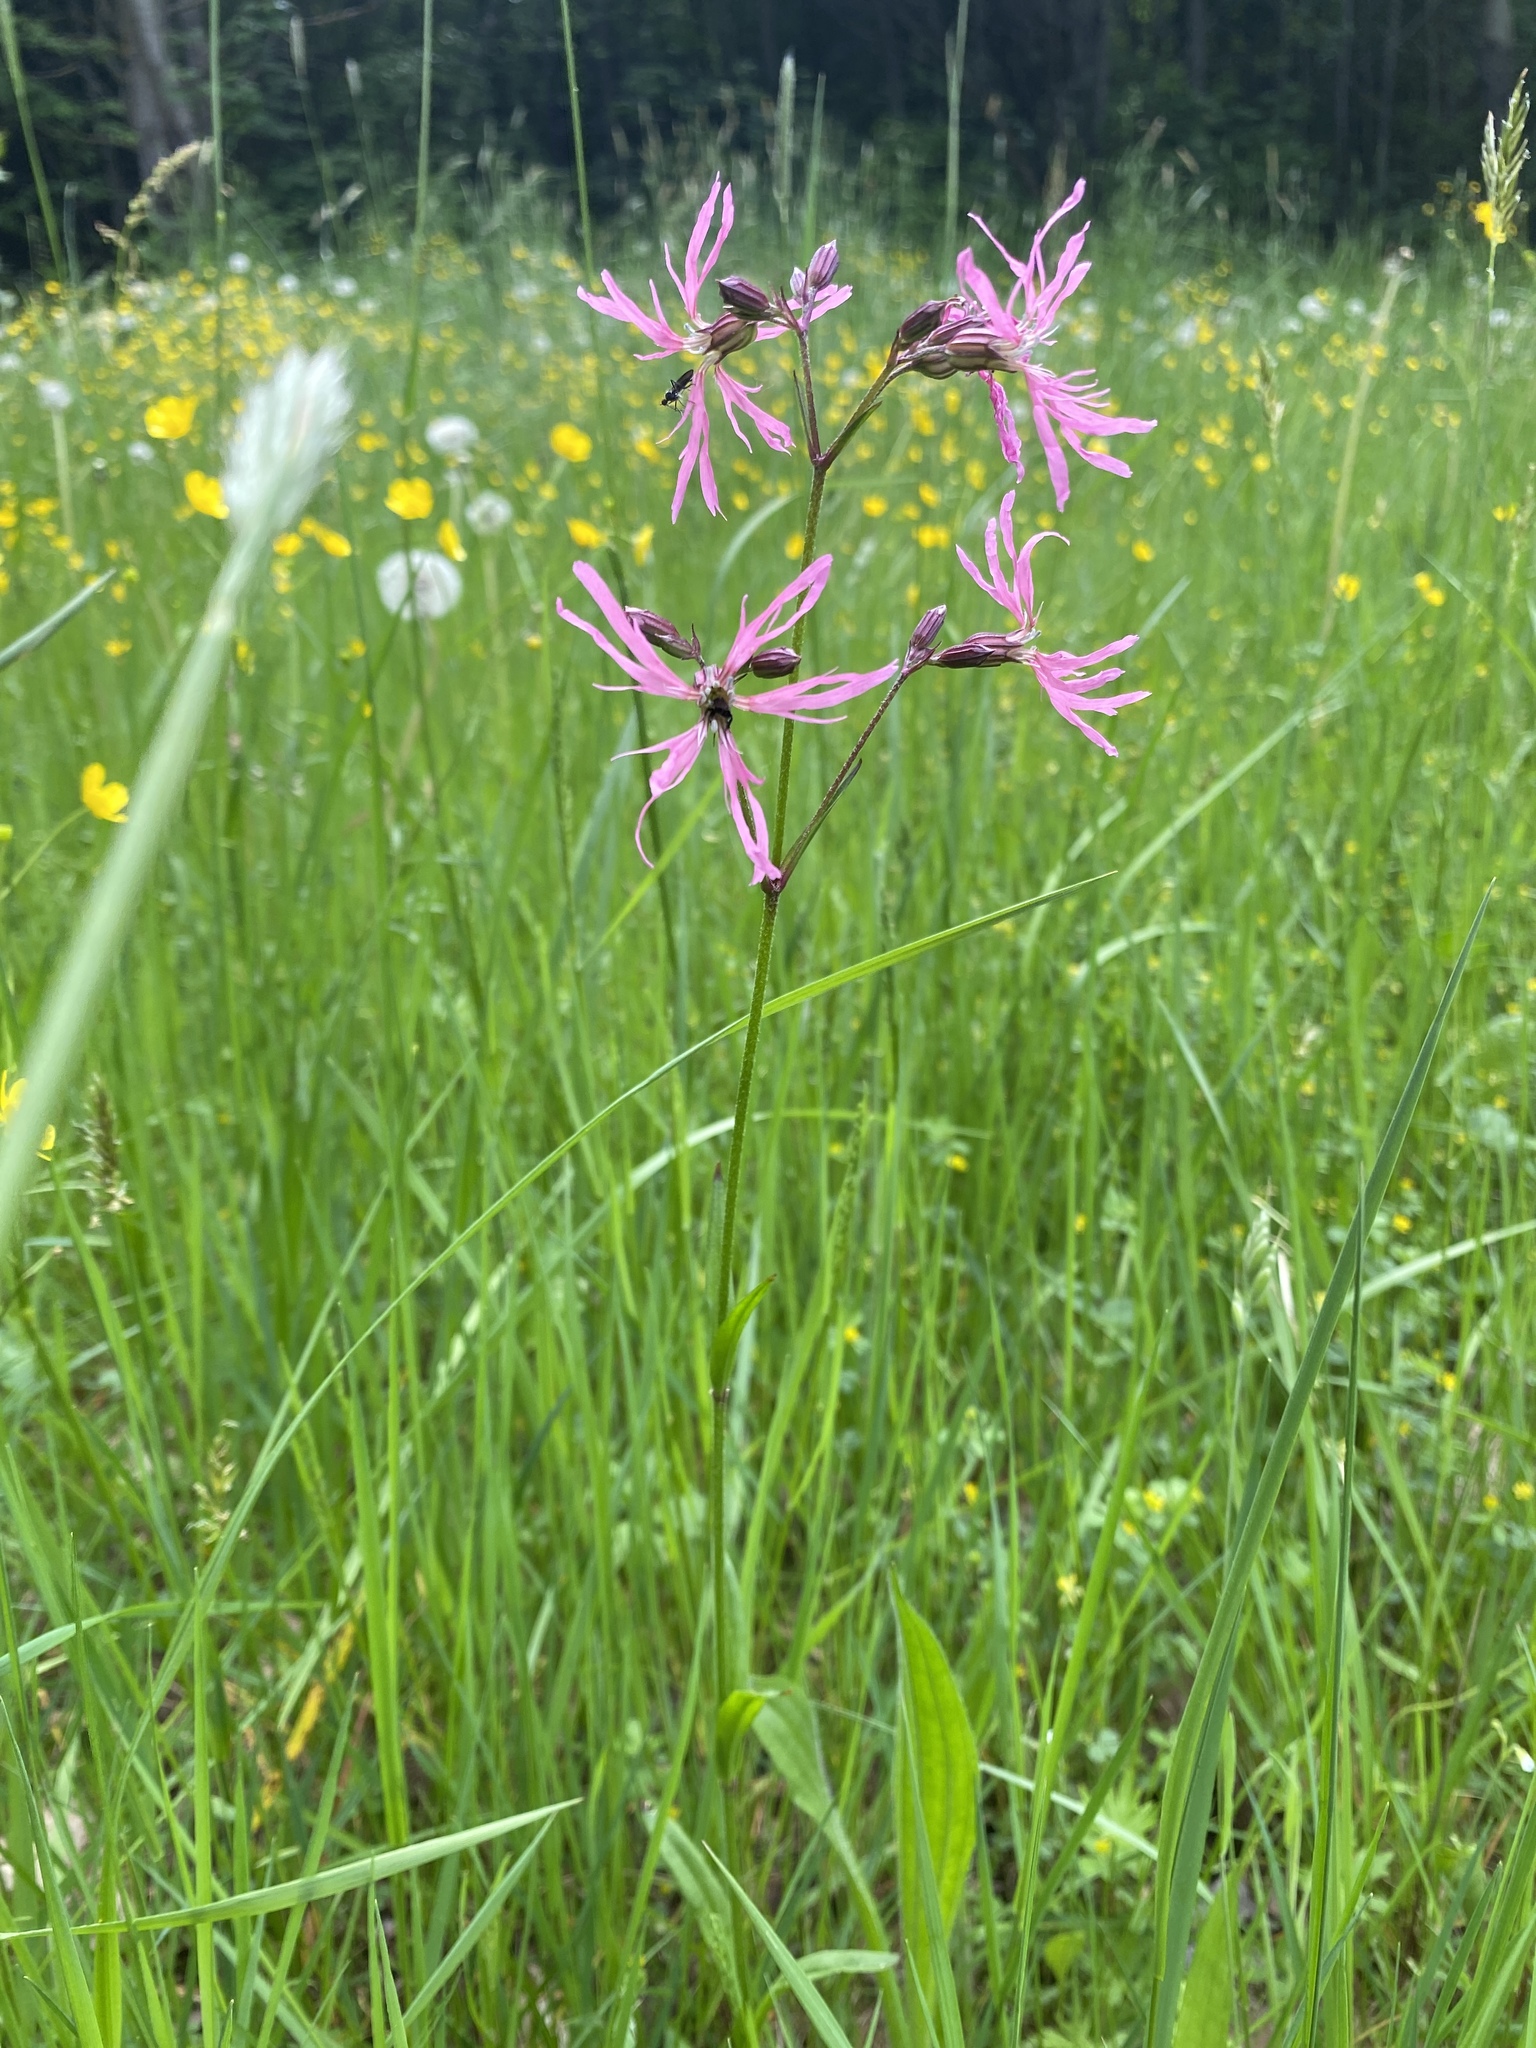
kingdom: Plantae
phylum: Tracheophyta
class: Magnoliopsida
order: Caryophyllales
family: Caryophyllaceae
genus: Silene
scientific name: Silene flos-cuculi
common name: Ragged-robin
